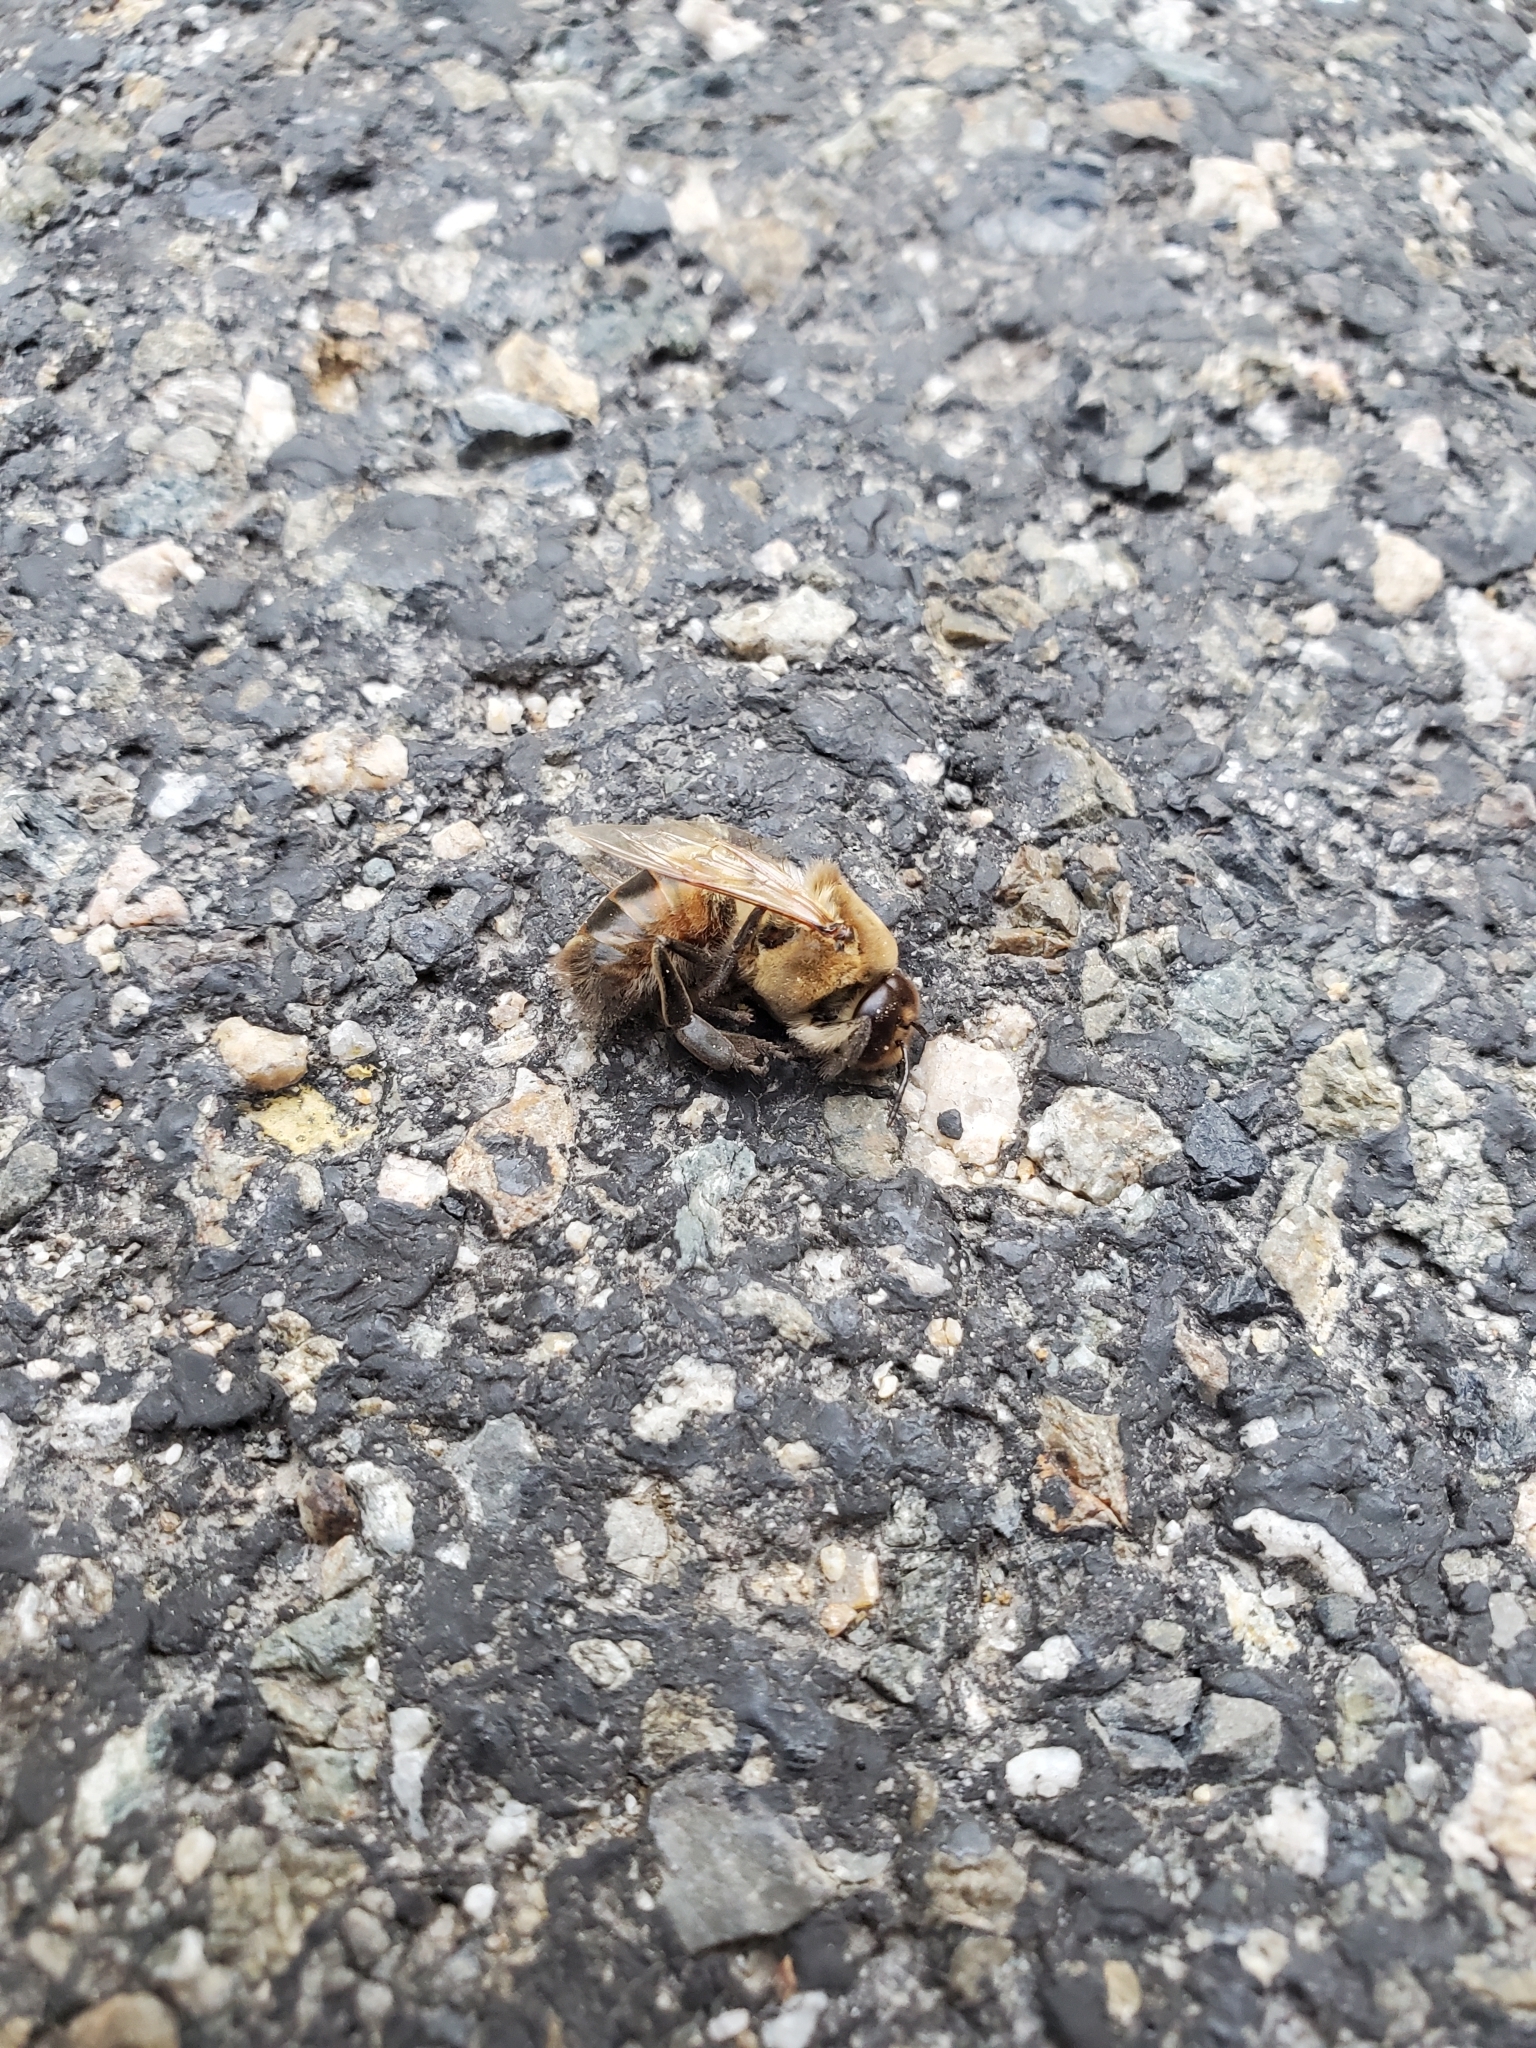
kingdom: Animalia
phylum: Arthropoda
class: Insecta
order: Hymenoptera
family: Apidae
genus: Apis
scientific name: Apis mellifera
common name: Honey bee
